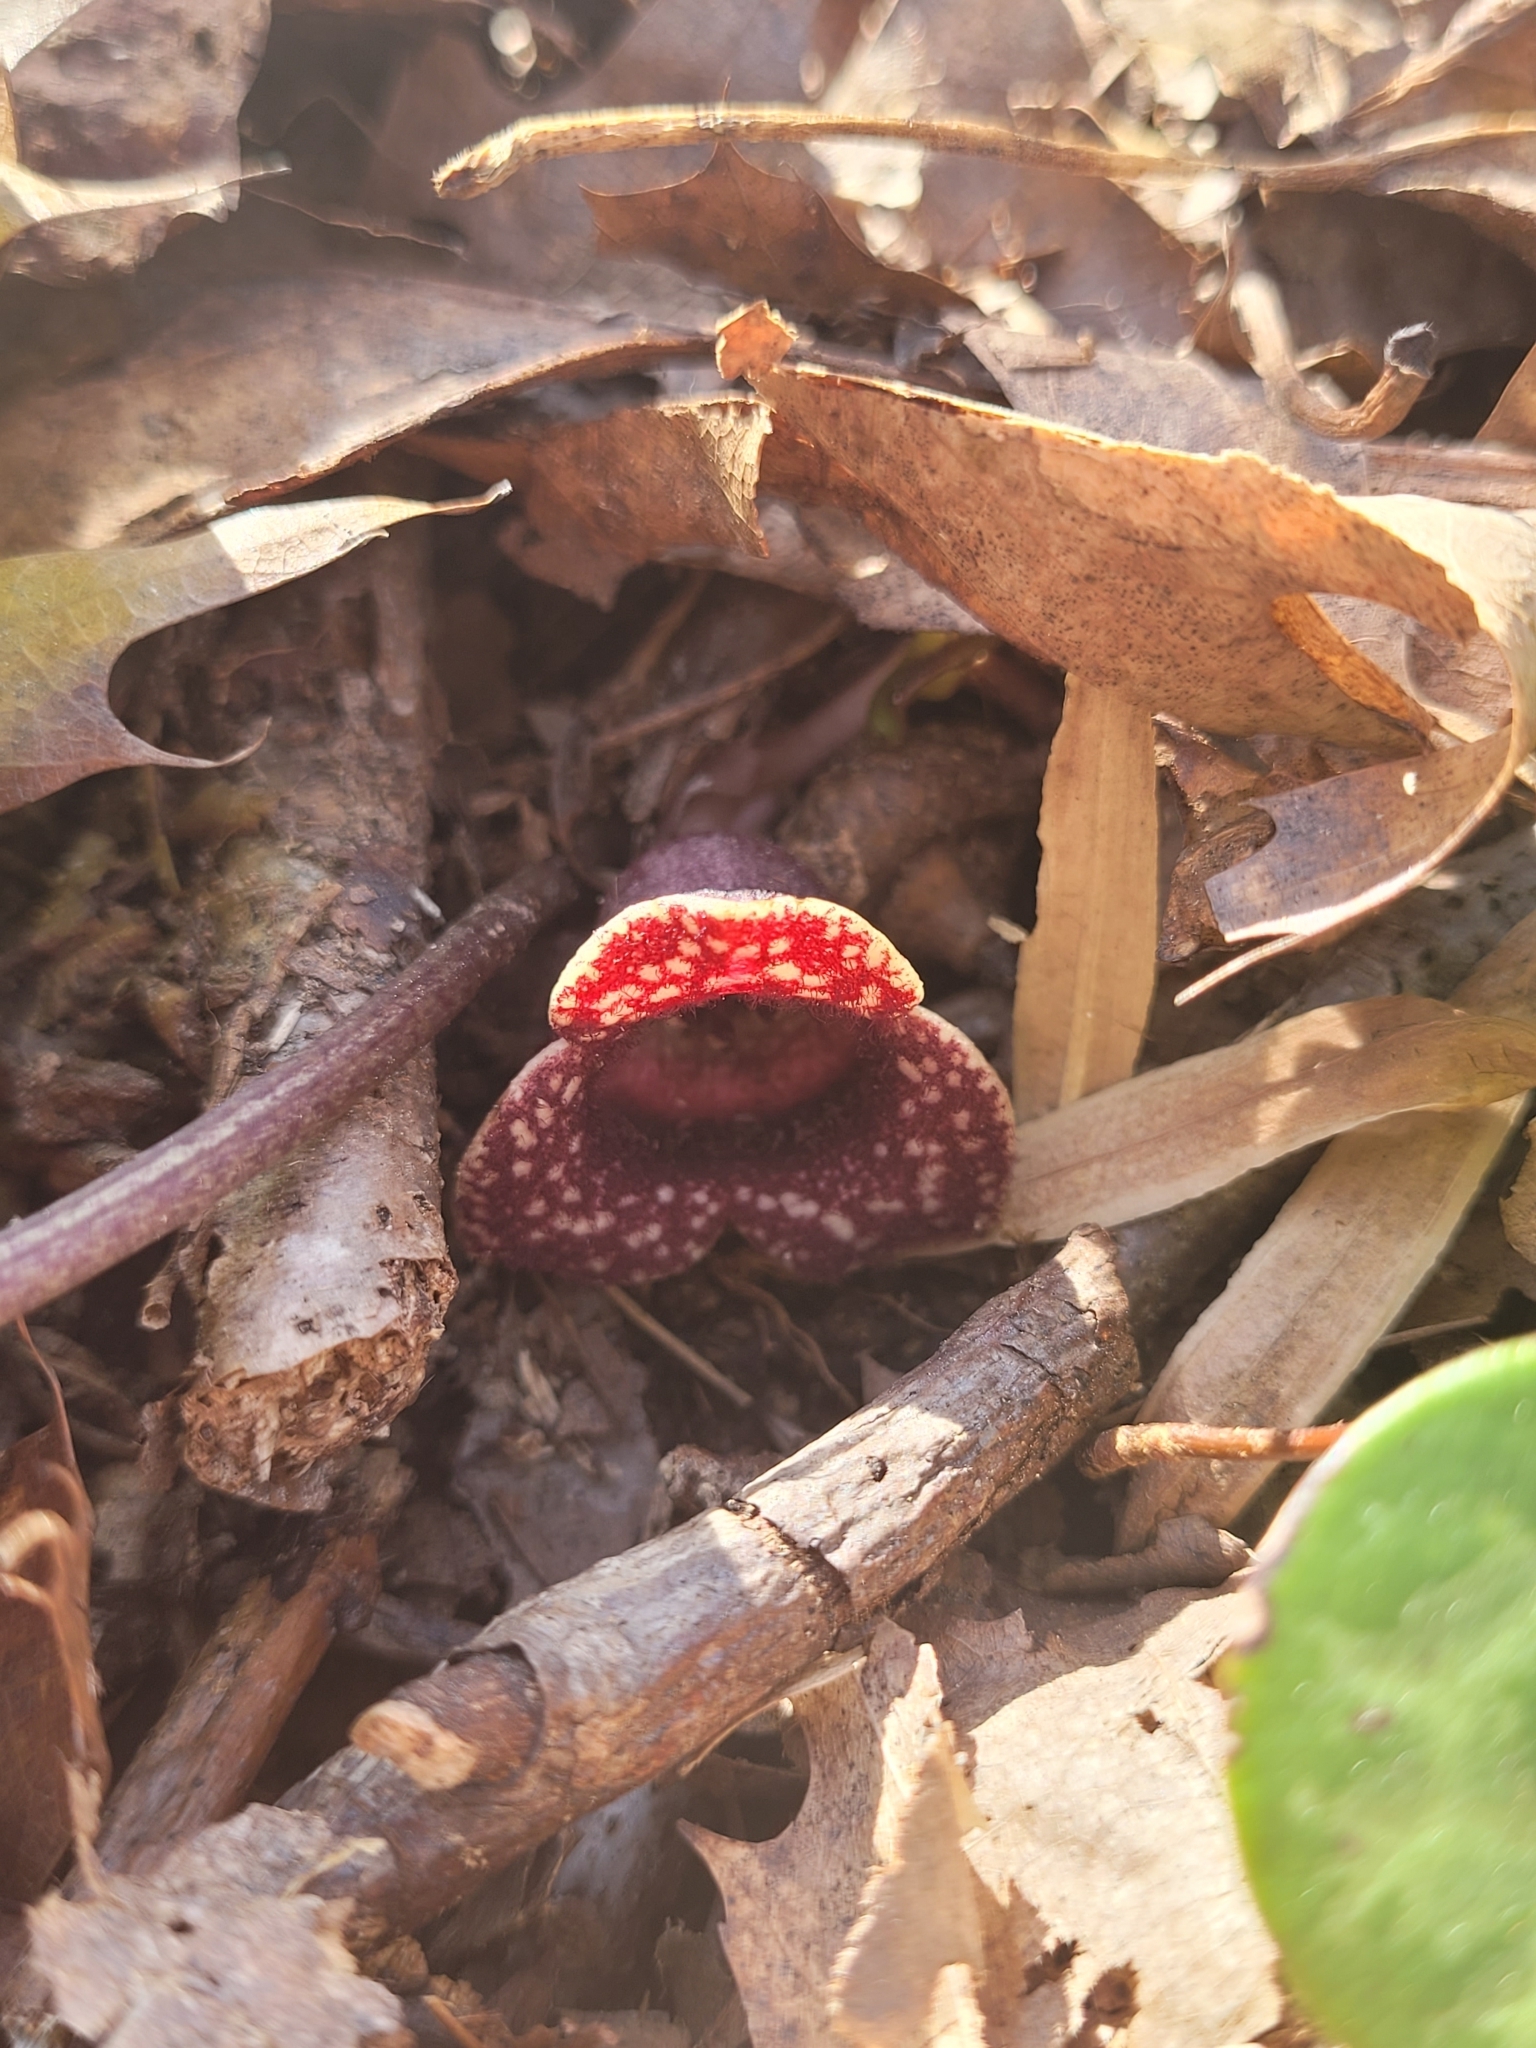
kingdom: Plantae
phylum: Tracheophyta
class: Magnoliopsida
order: Piperales
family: Aristolochiaceae
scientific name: Aristolochiaceae
